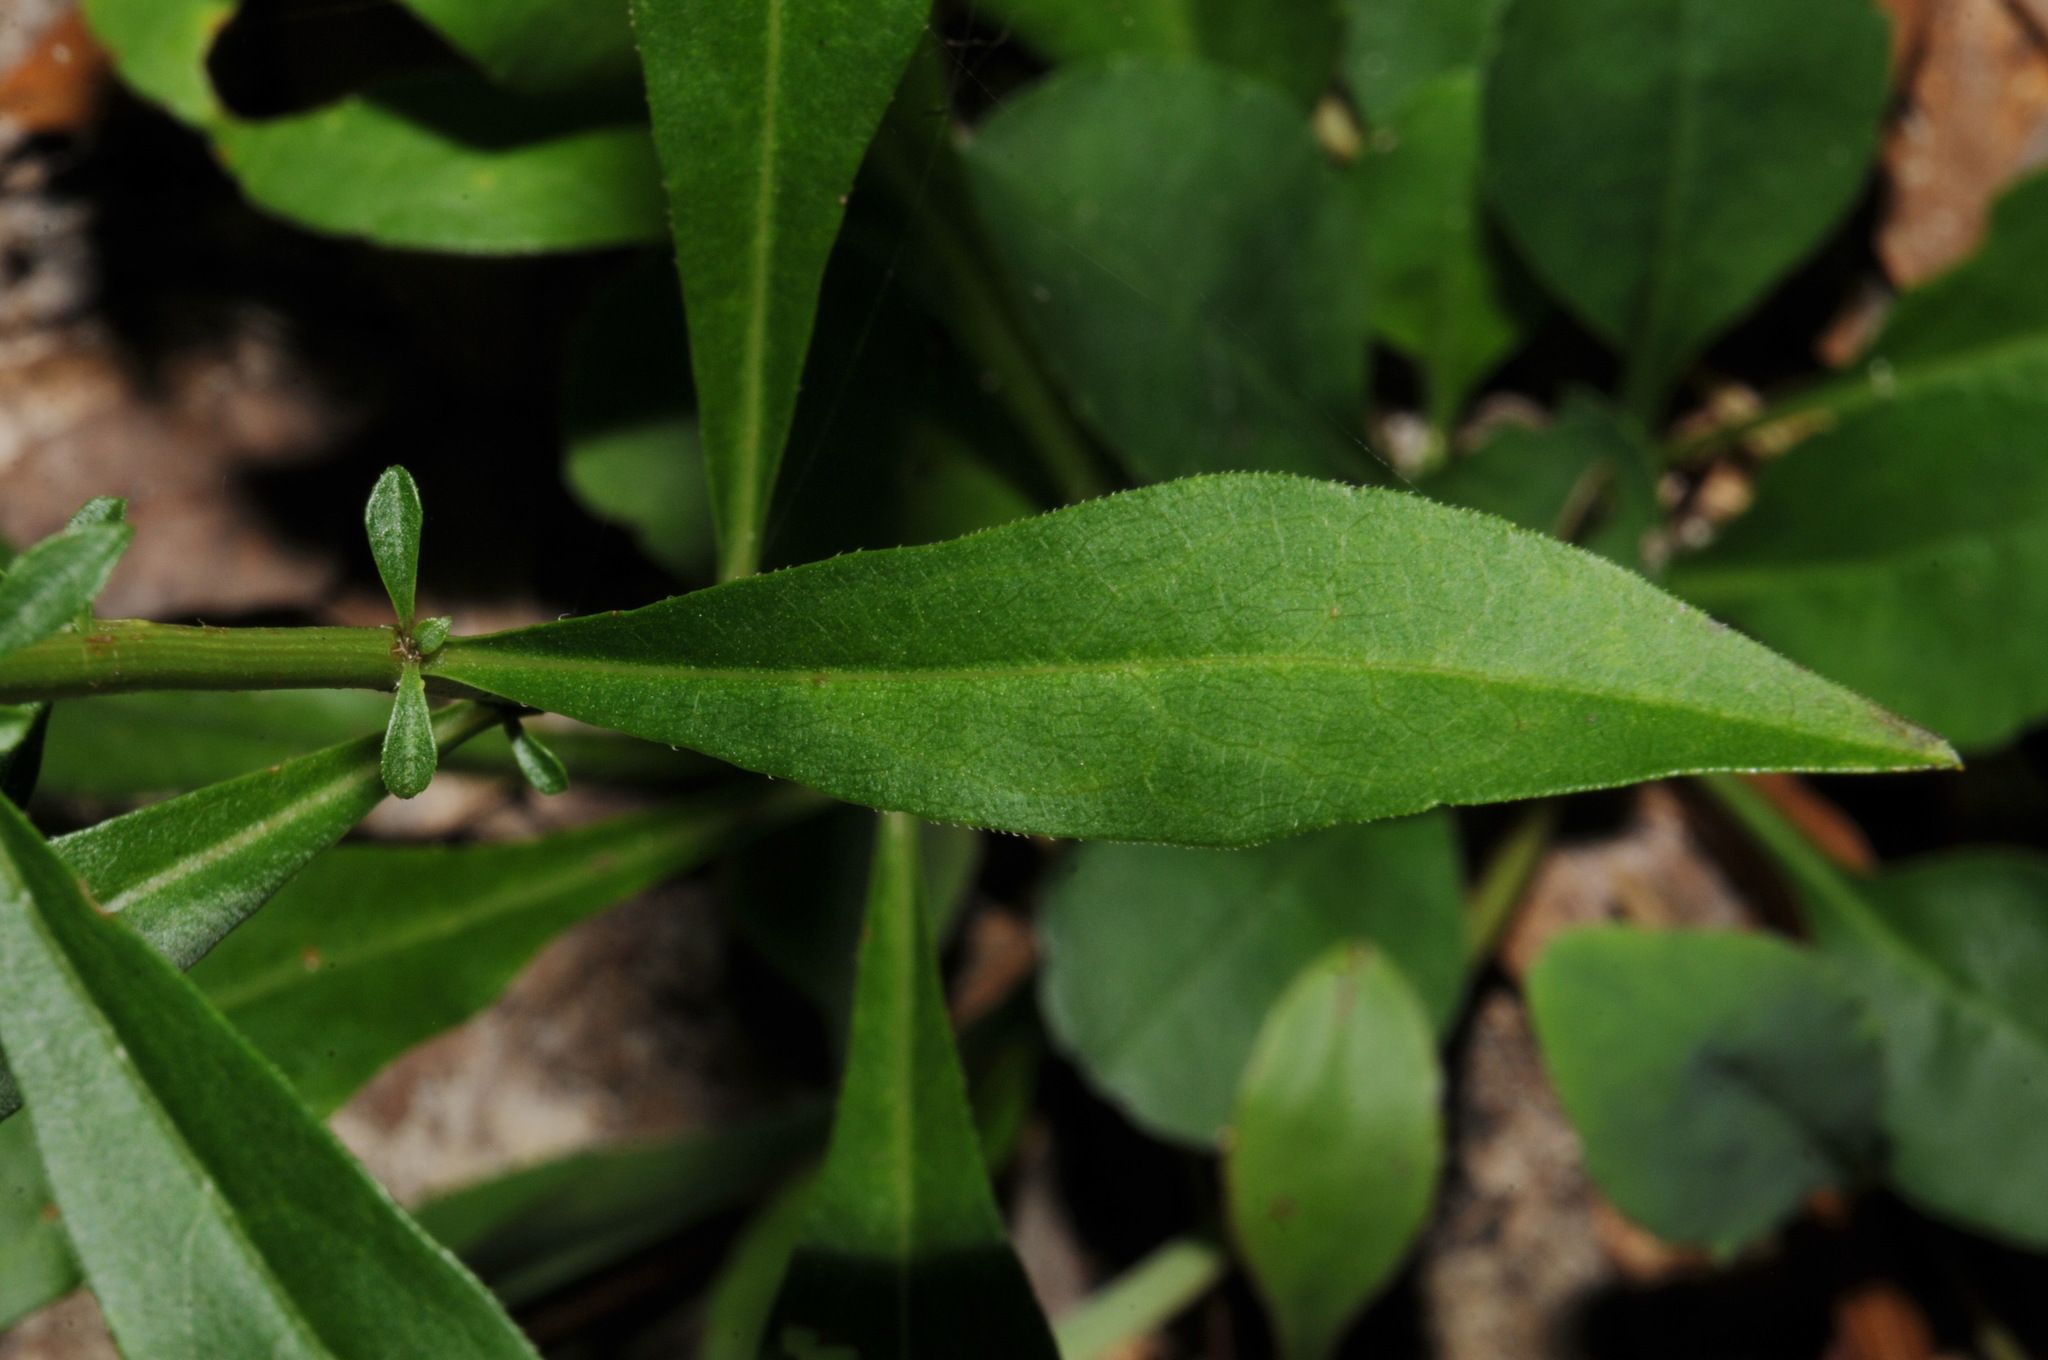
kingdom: Plantae
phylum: Tracheophyta
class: Magnoliopsida
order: Asterales
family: Asteraceae
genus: Solidago
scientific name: Solidago arenicola
